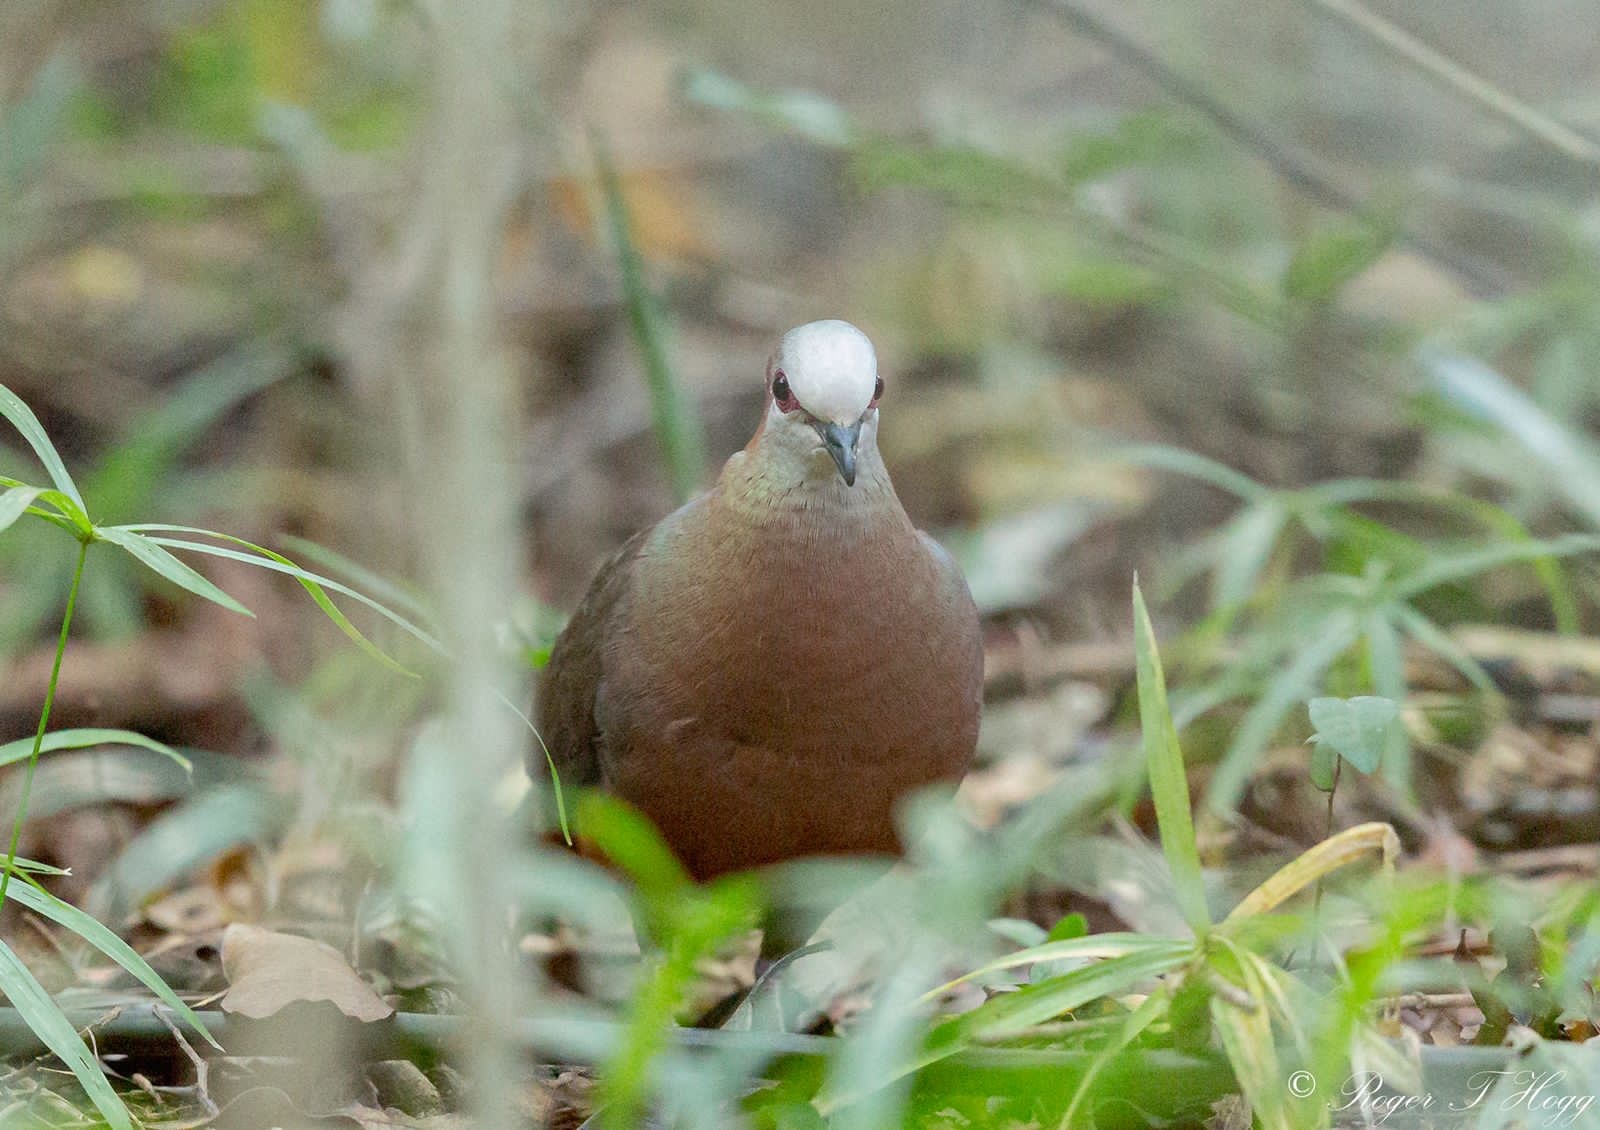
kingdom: Animalia
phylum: Chordata
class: Aves
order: Columbiformes
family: Columbidae
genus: Columba
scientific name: Columba larvata
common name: Lemon dove
